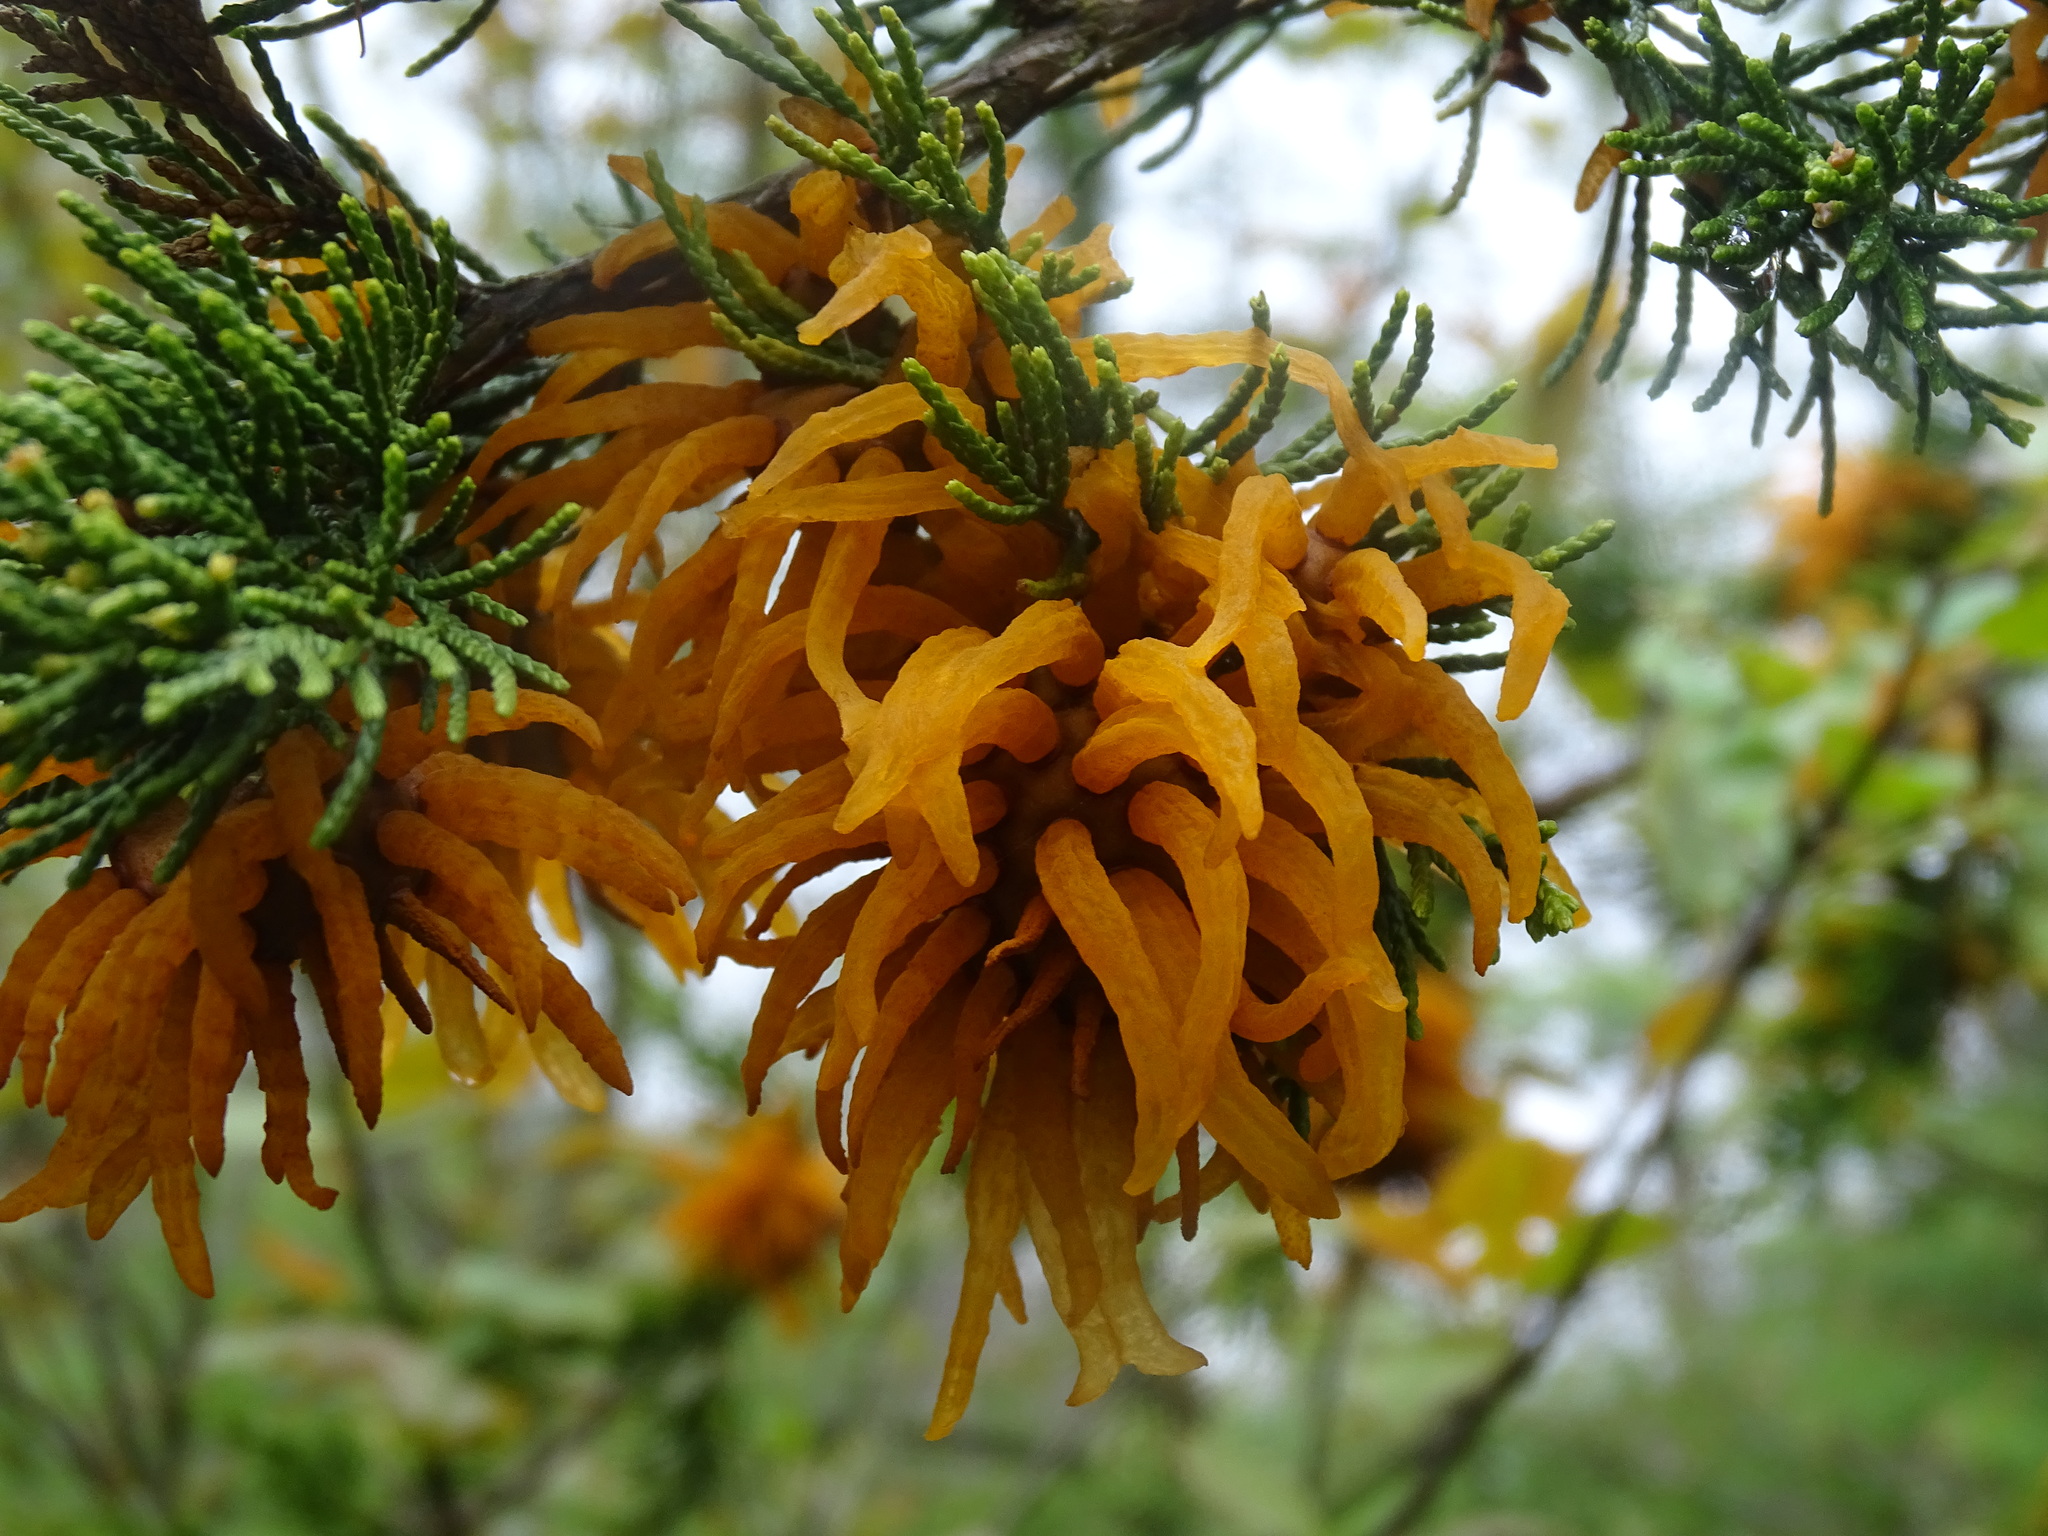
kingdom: Fungi
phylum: Basidiomycota
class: Pucciniomycetes
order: Pucciniales
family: Gymnosporangiaceae
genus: Gymnosporangium
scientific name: Gymnosporangium juniperi-virginianae
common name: Juniper-apple rust
